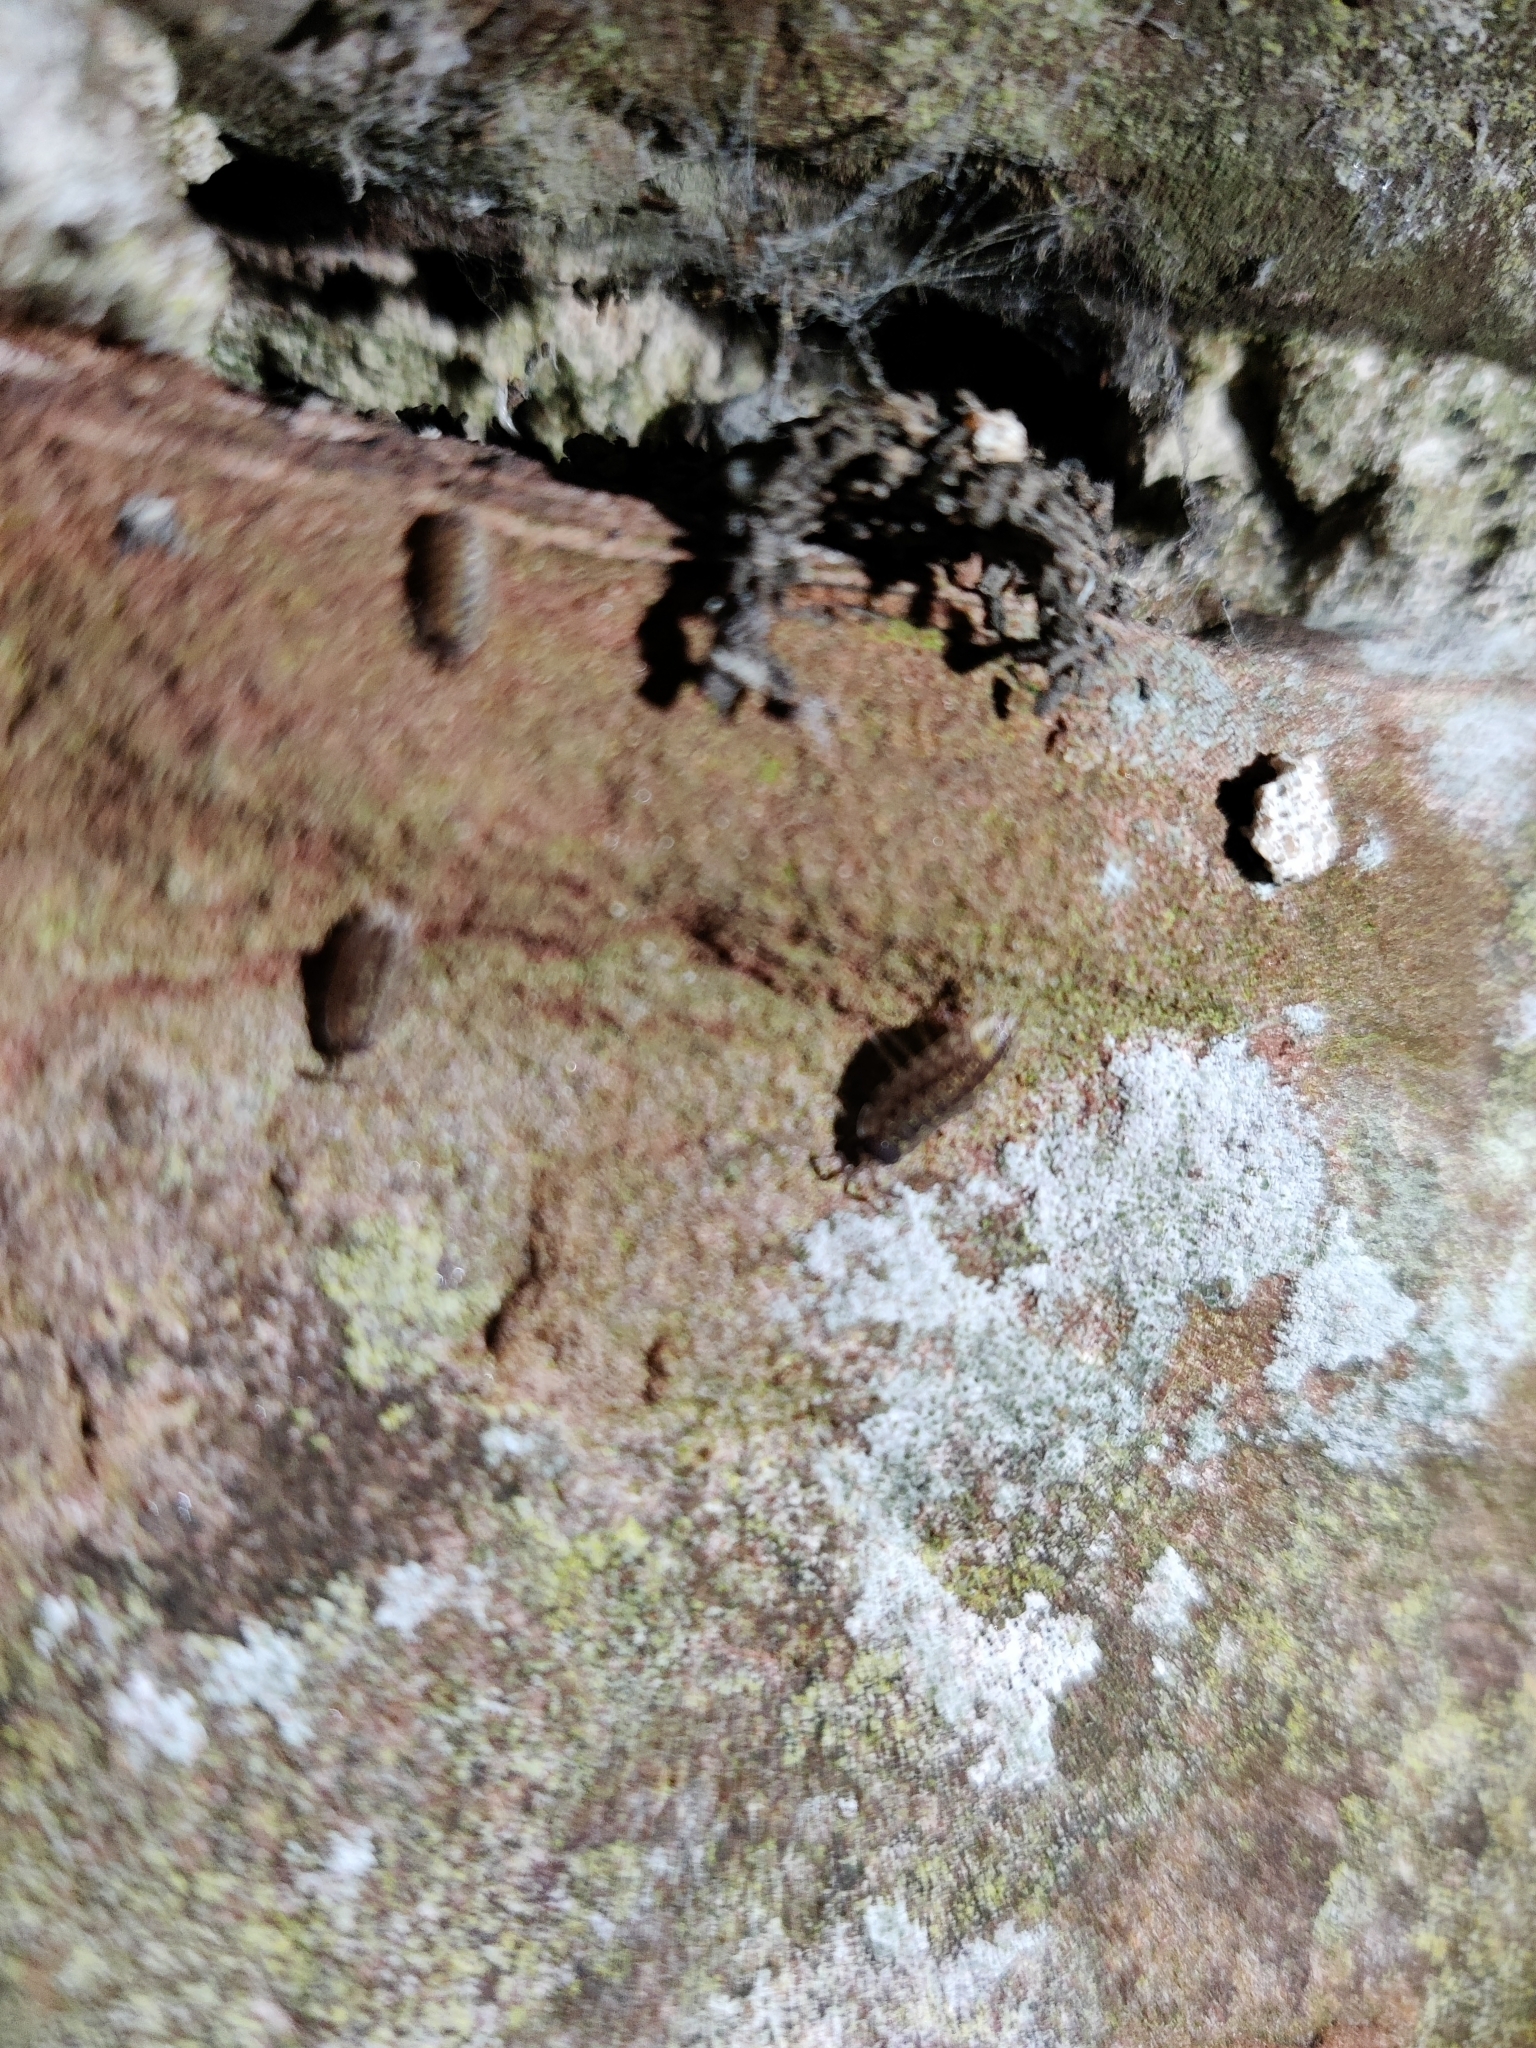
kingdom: Animalia
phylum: Arthropoda
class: Malacostraca
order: Isopoda
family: Porcellionidae
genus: Porcellio
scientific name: Porcellio spinicornis
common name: Painted woodlouse
